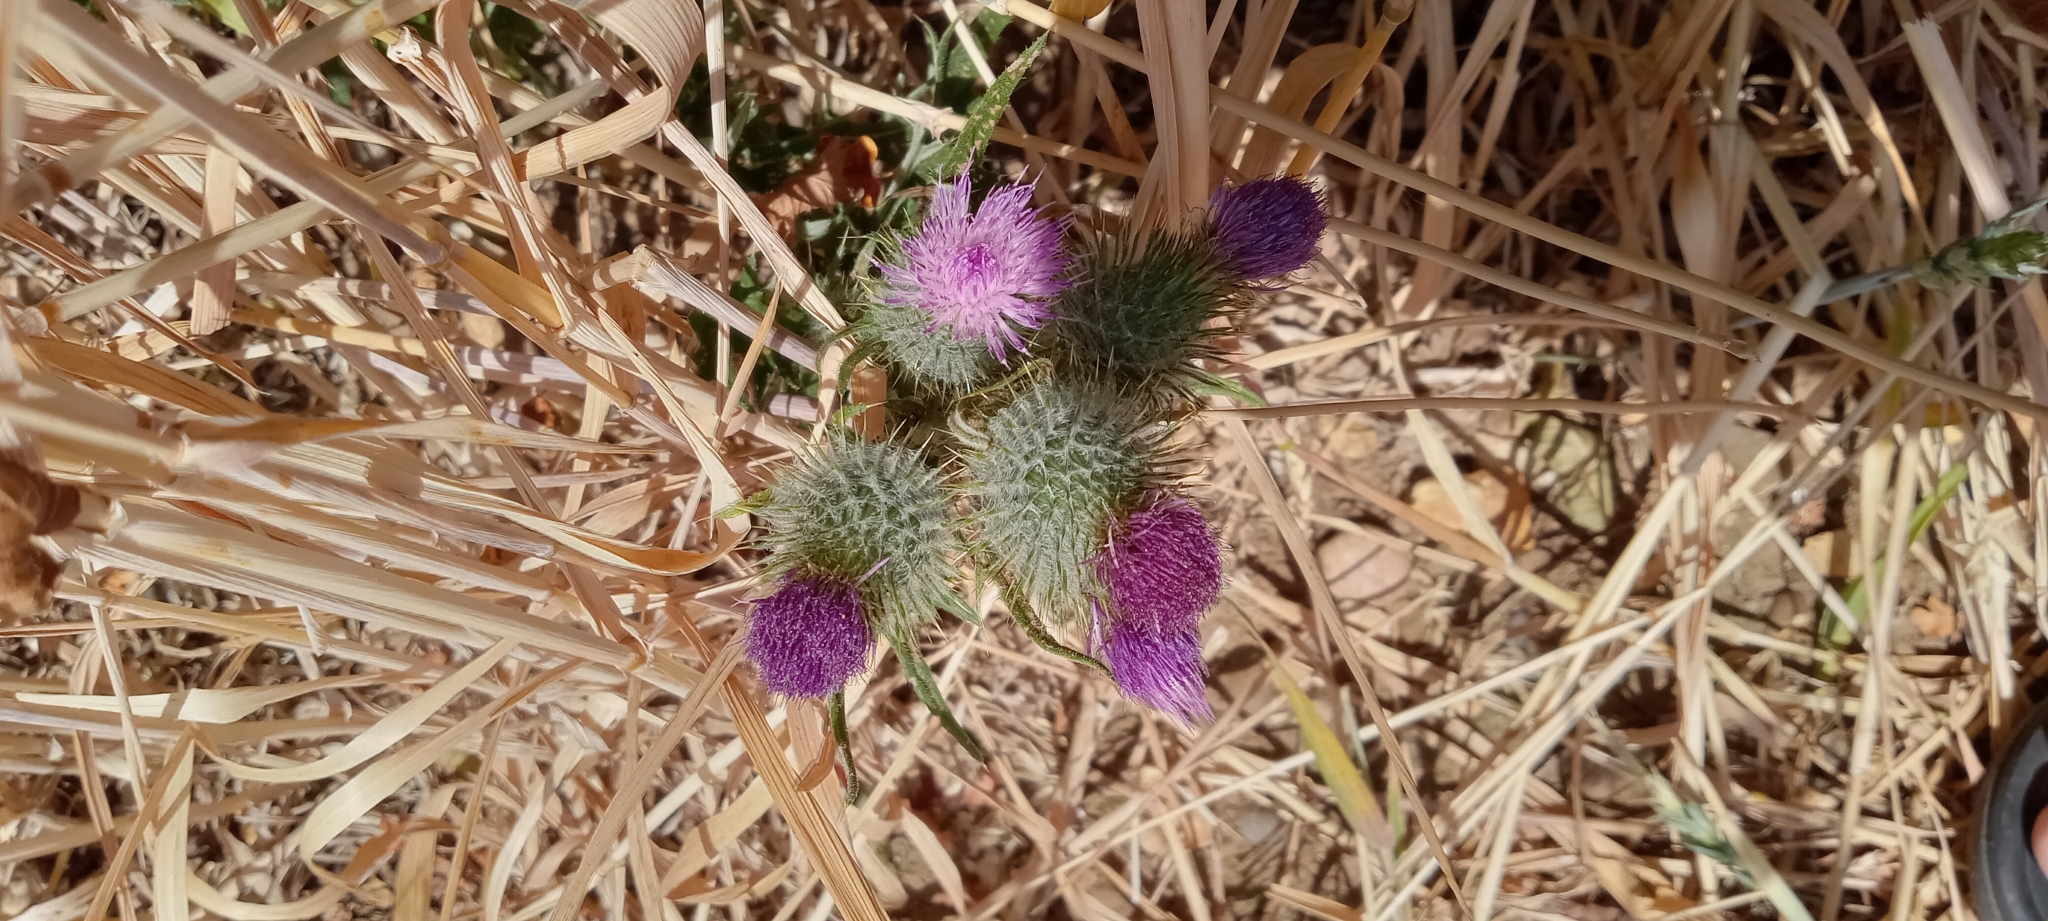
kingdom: Plantae
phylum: Tracheophyta
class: Magnoliopsida
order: Asterales
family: Asteraceae
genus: Cirsium
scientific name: Cirsium vulgare
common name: Bull thistle
